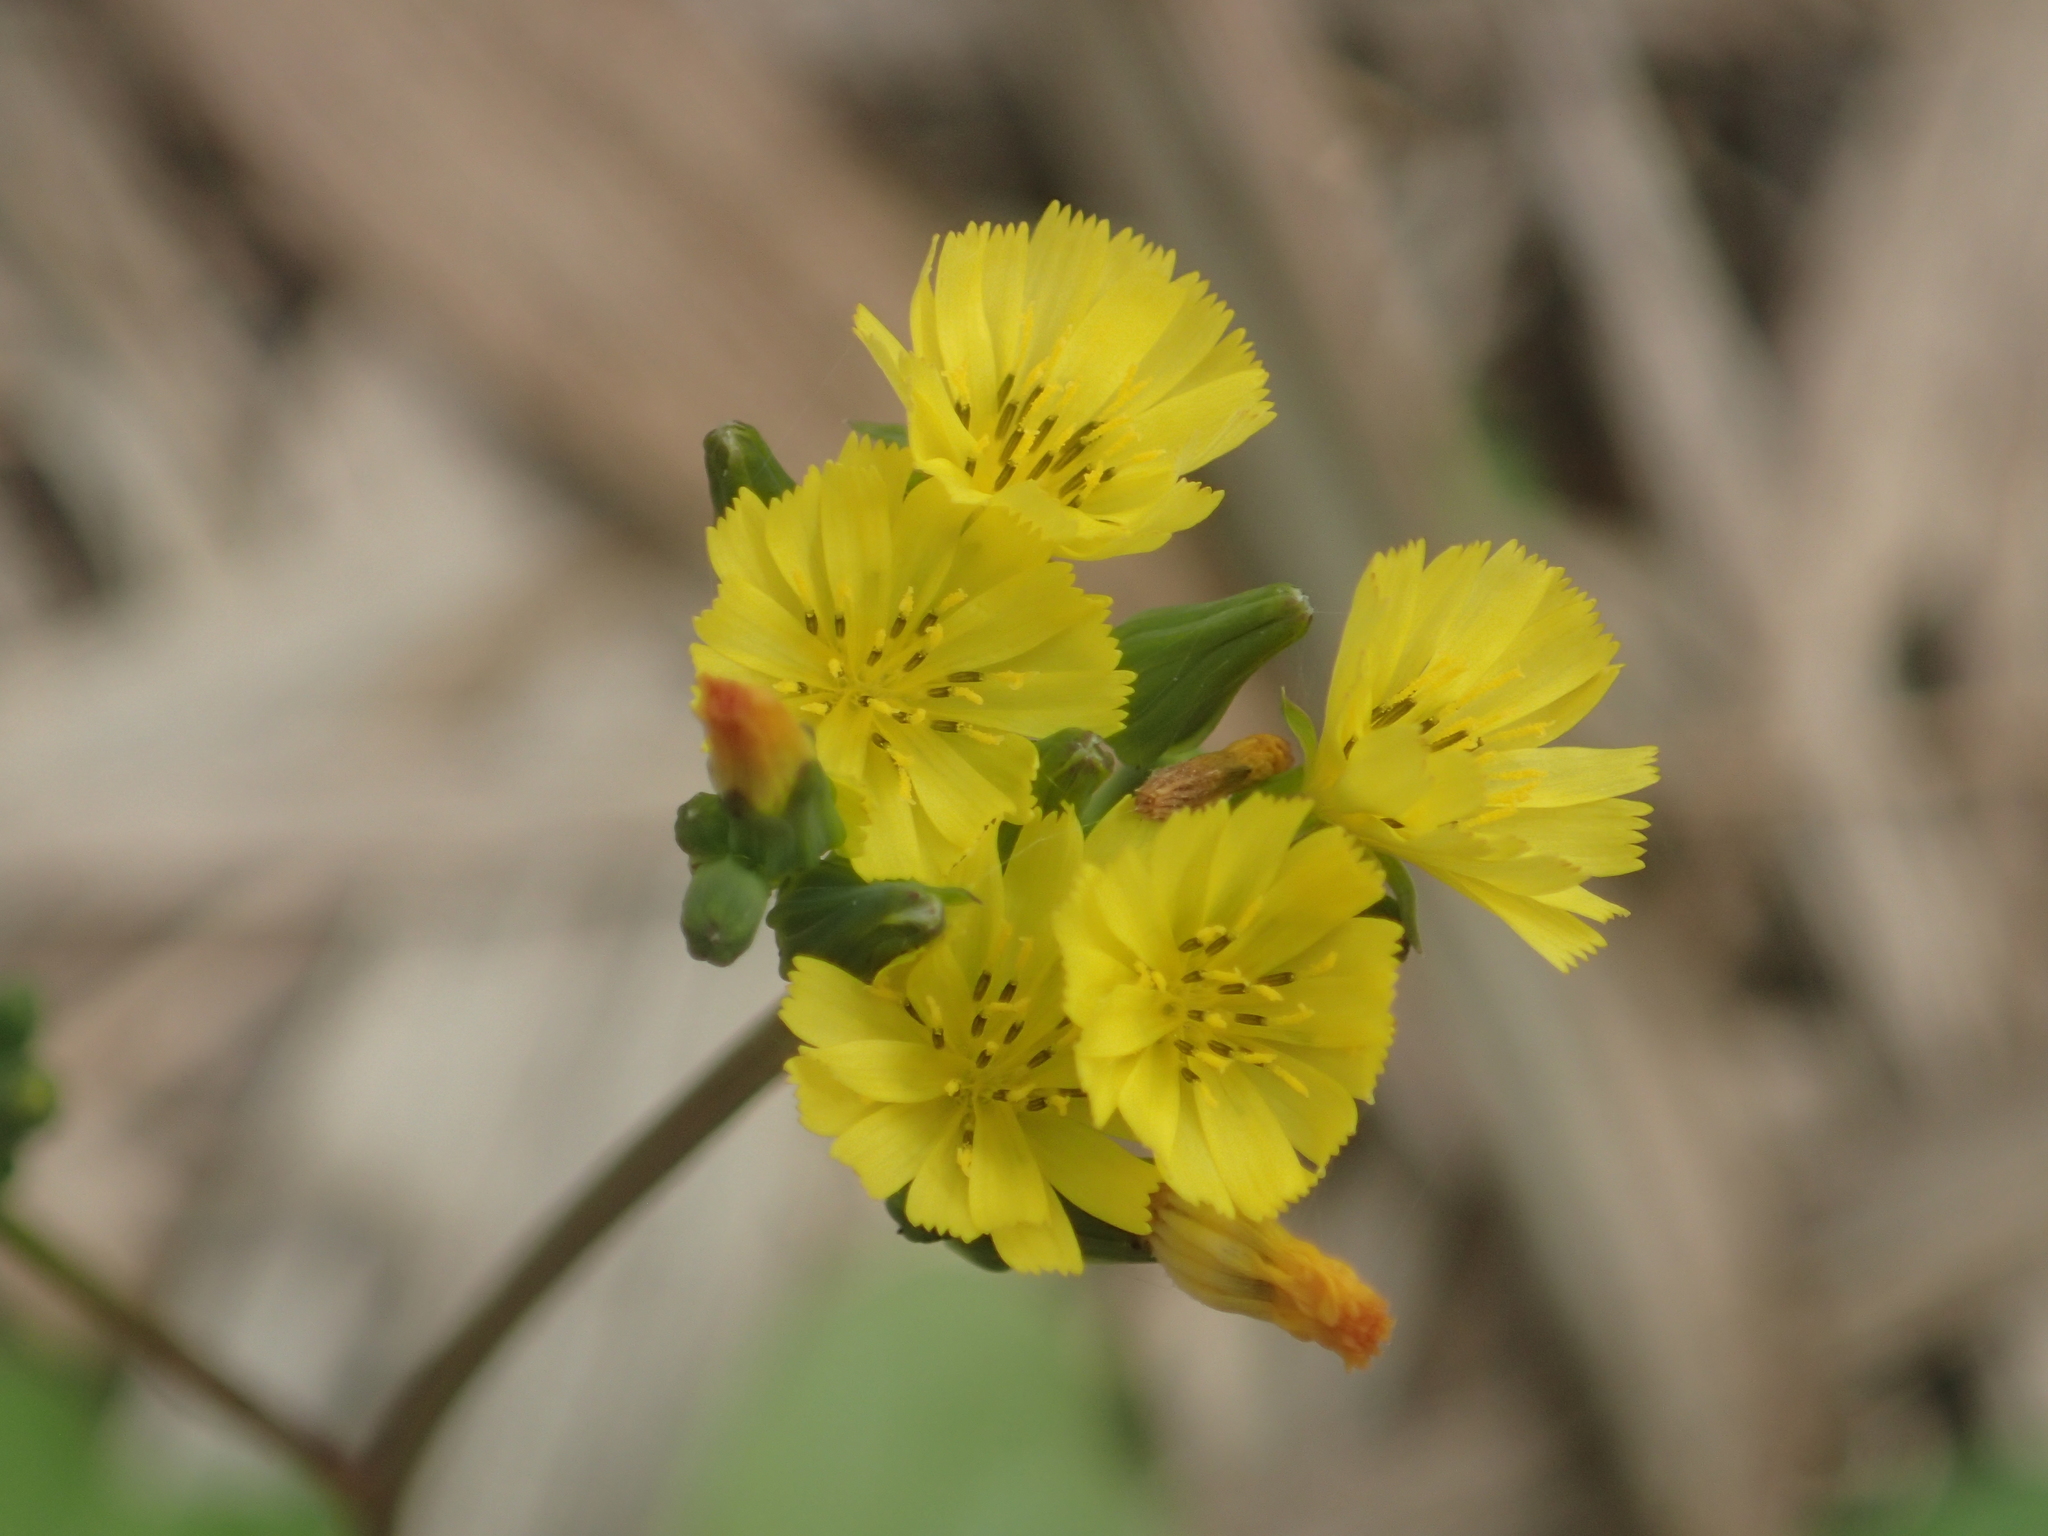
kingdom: Plantae
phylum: Tracheophyta
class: Magnoliopsida
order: Asterales
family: Asteraceae
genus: Youngia
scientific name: Youngia japonica
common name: Oriental false hawksbeard
